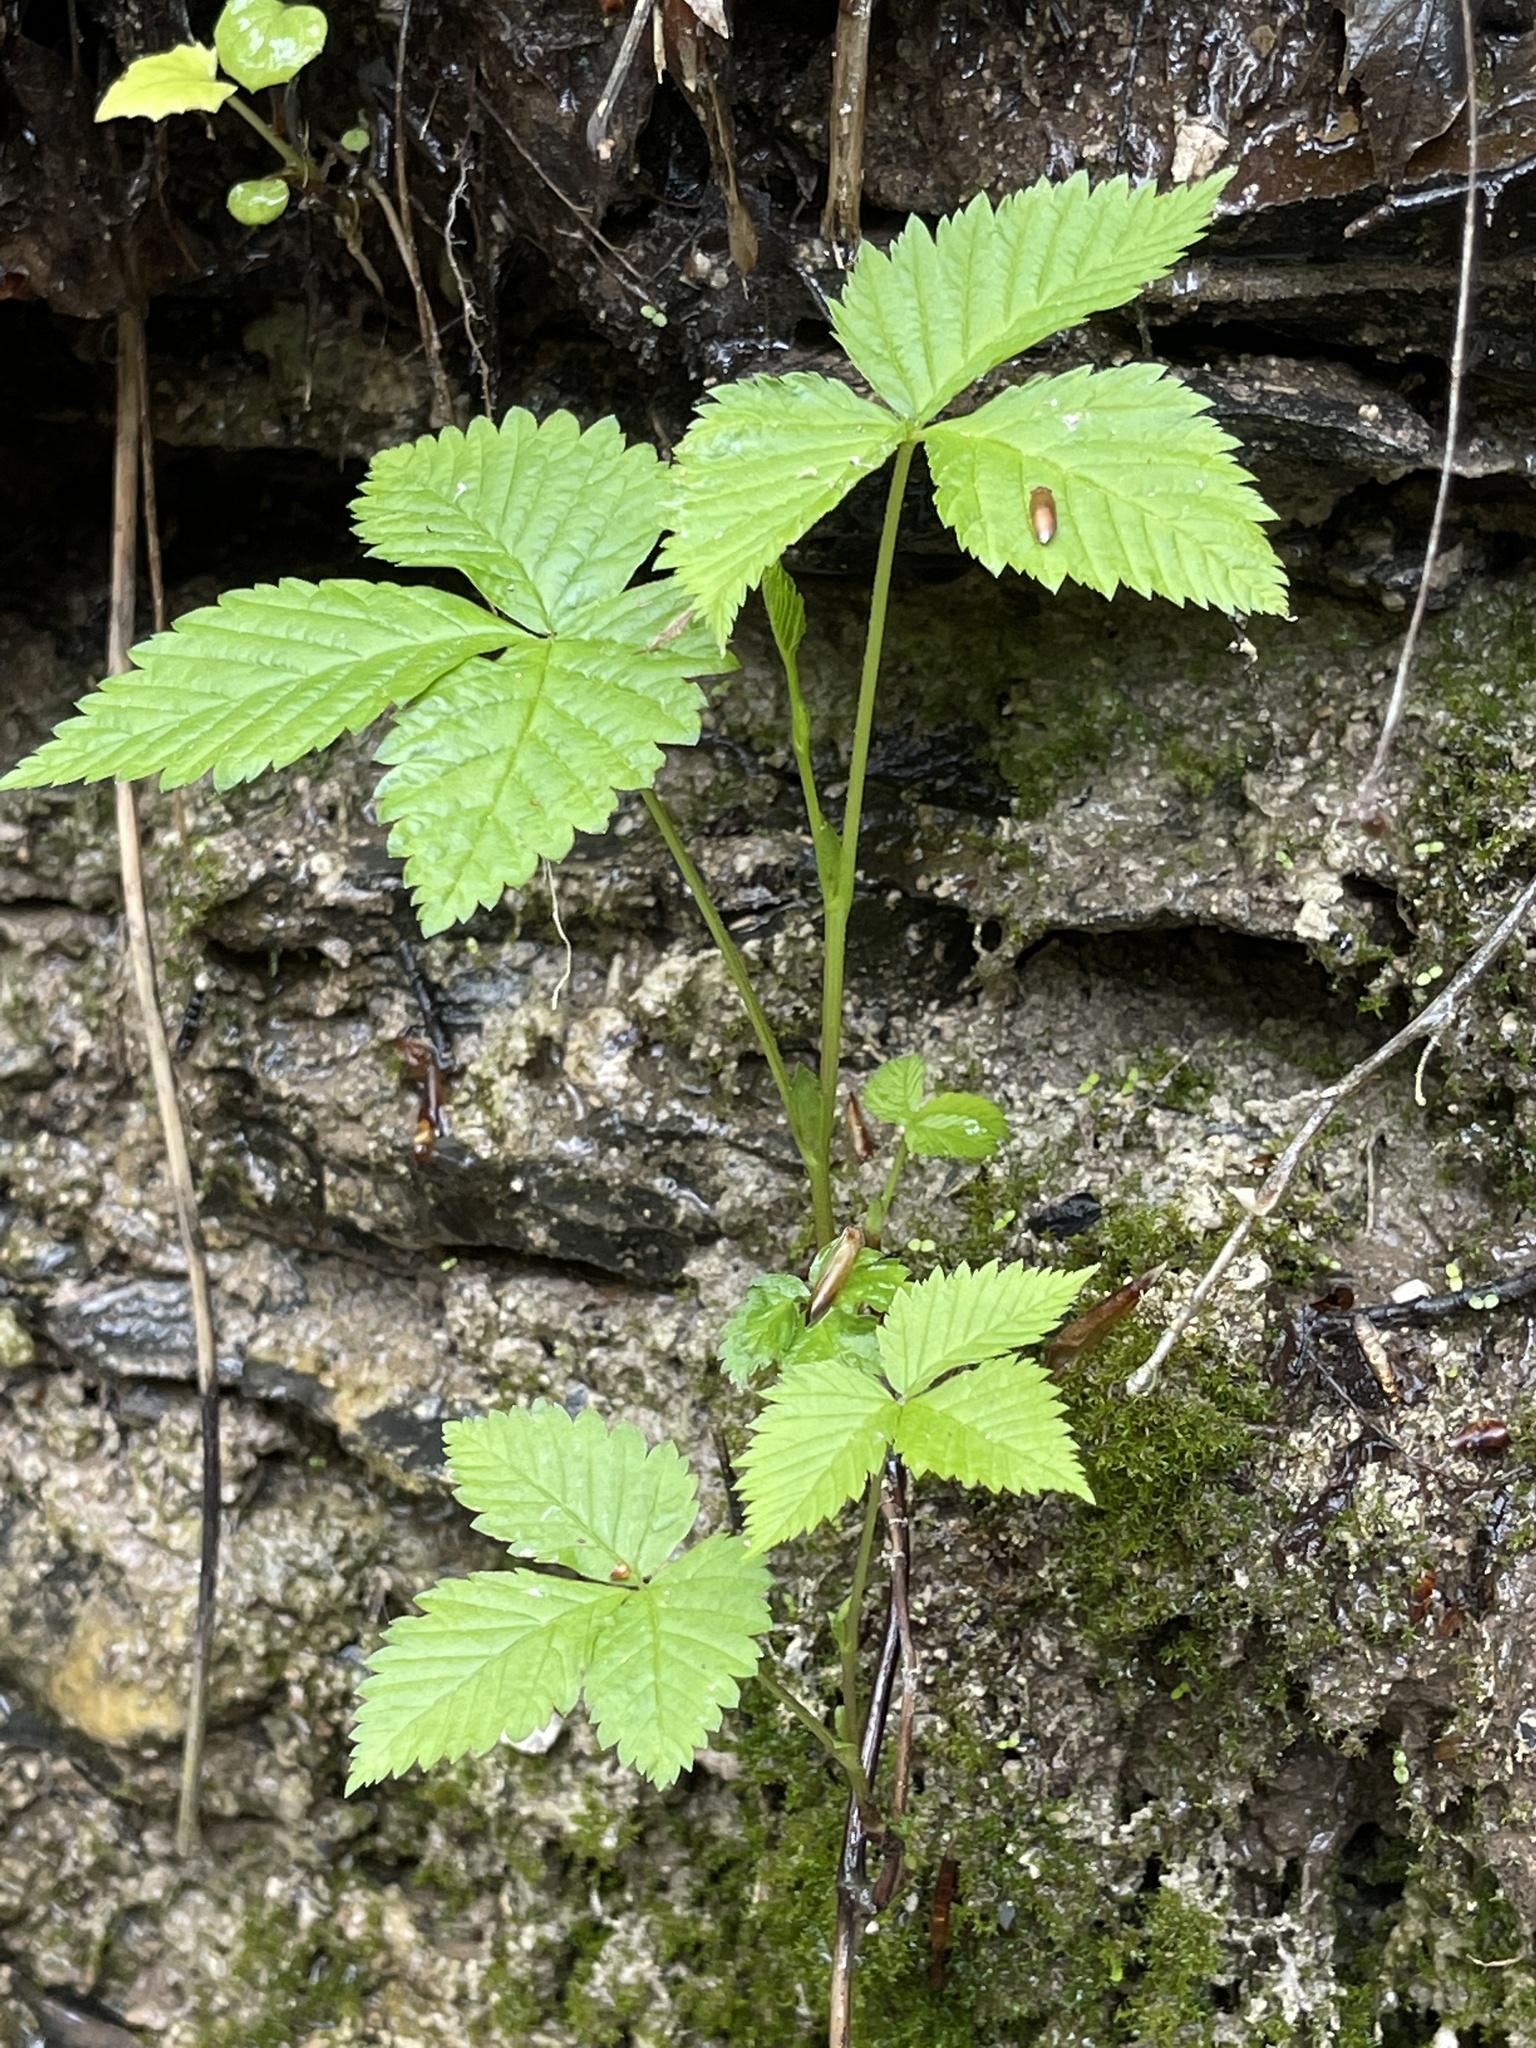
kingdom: Plantae
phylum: Tracheophyta
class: Magnoliopsida
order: Rosales
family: Rosaceae
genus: Rubus
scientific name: Rubus pubescens
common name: Dwarf raspberry
